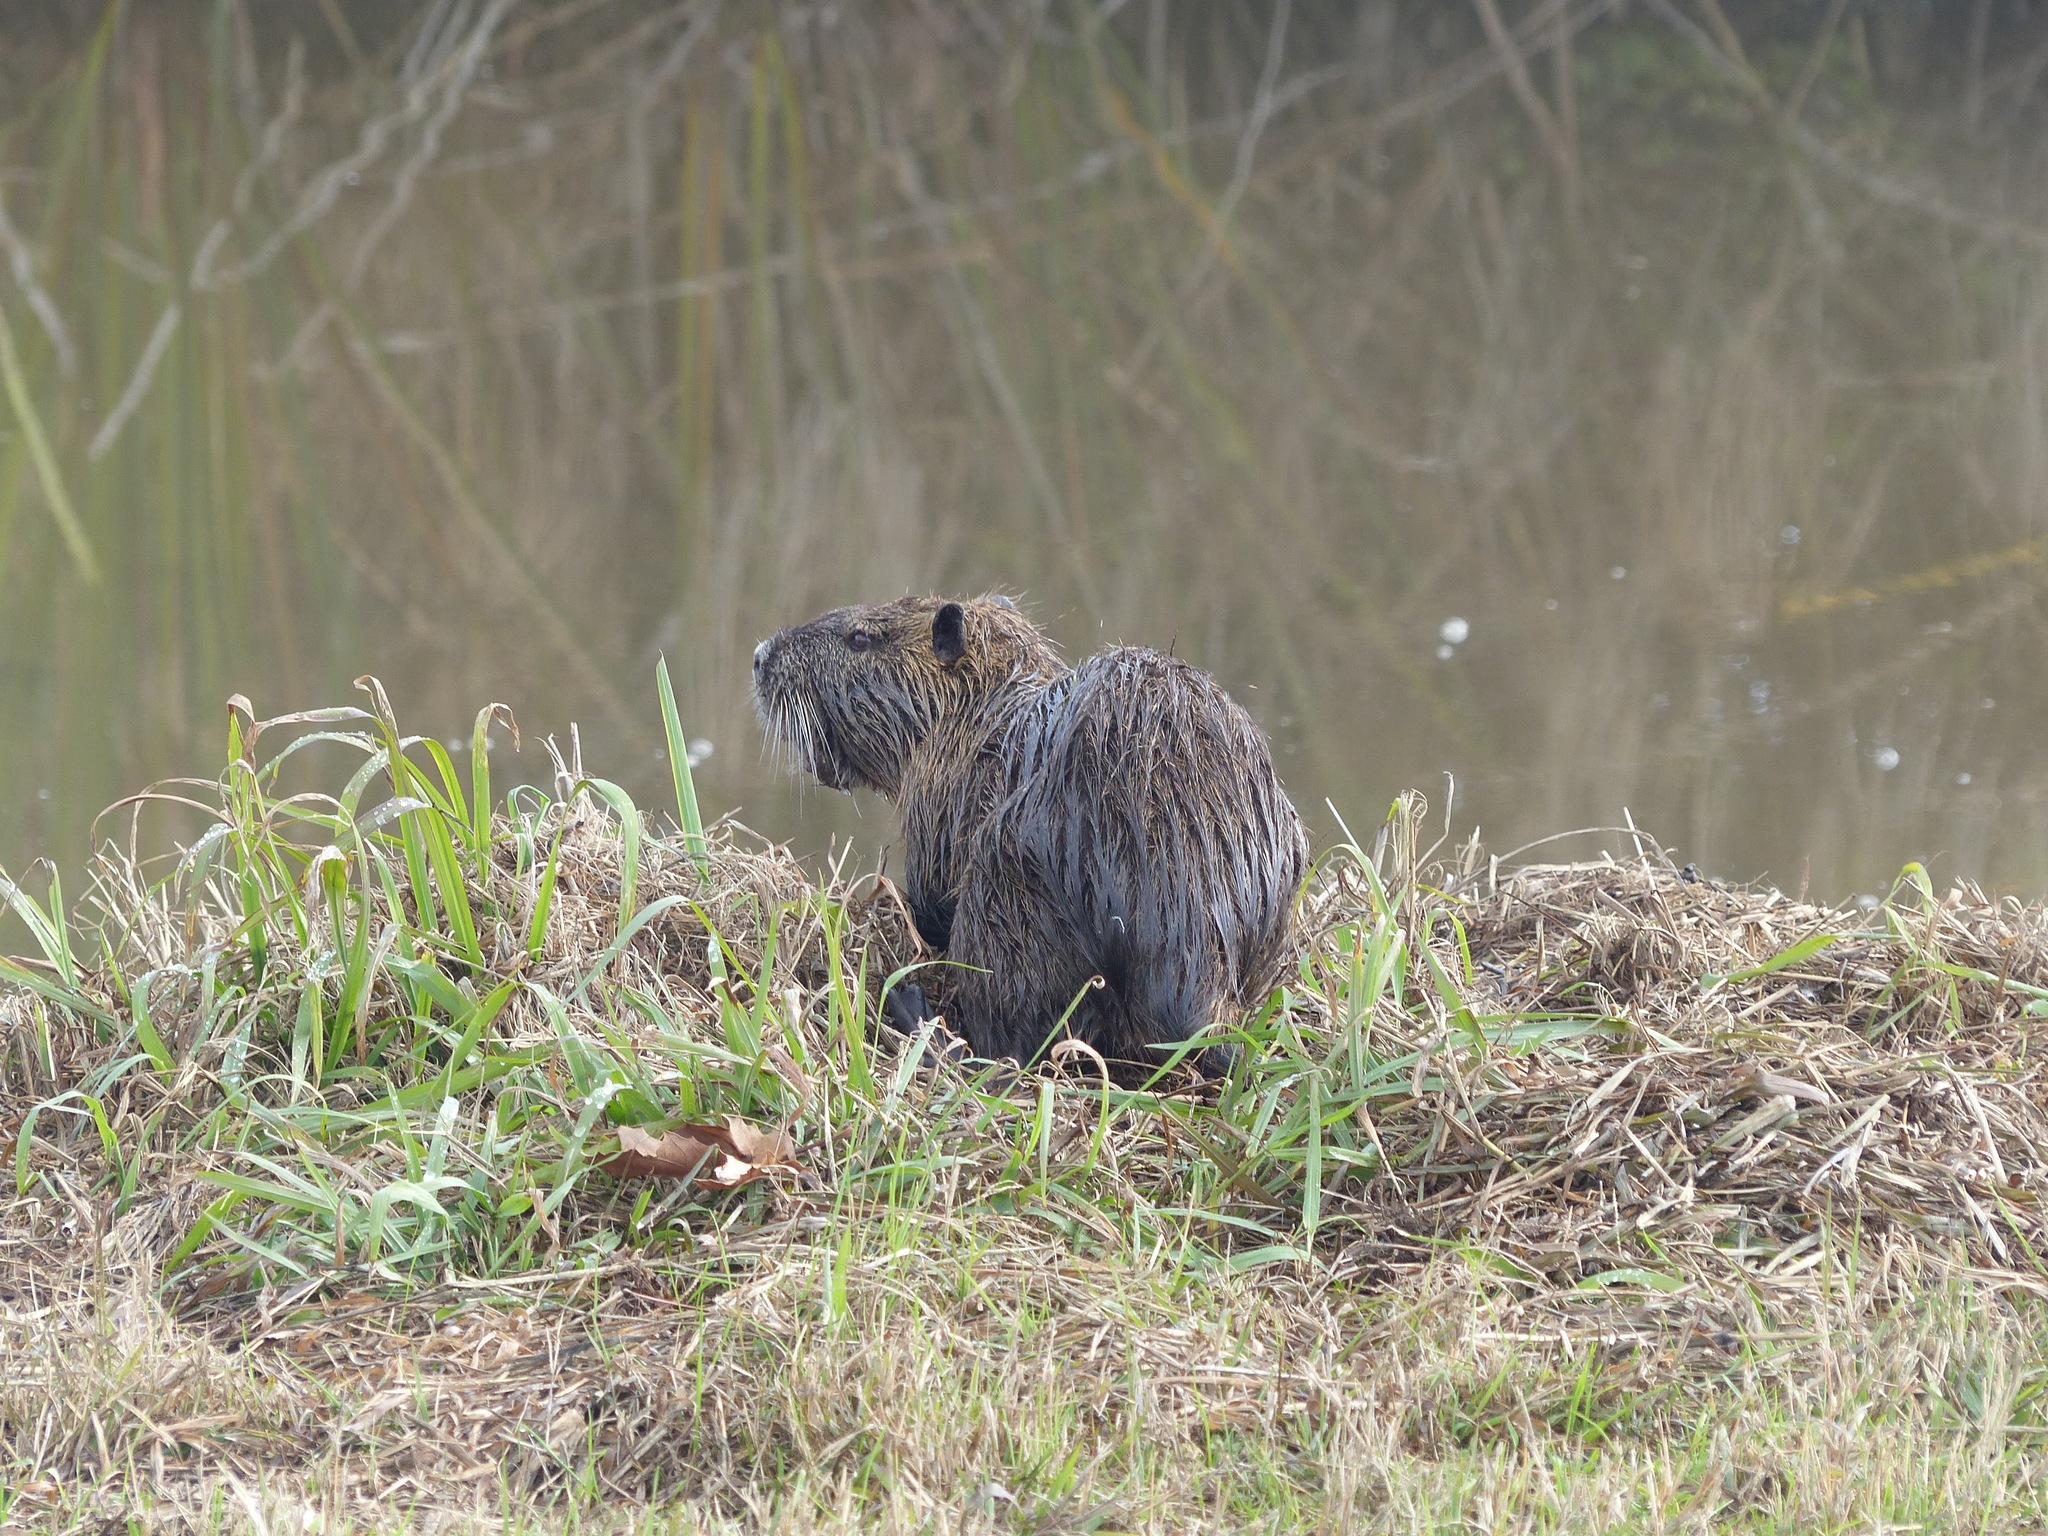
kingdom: Animalia
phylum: Chordata
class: Mammalia
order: Rodentia
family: Myocastoridae
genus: Myocastor
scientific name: Myocastor coypus
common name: Coypu
